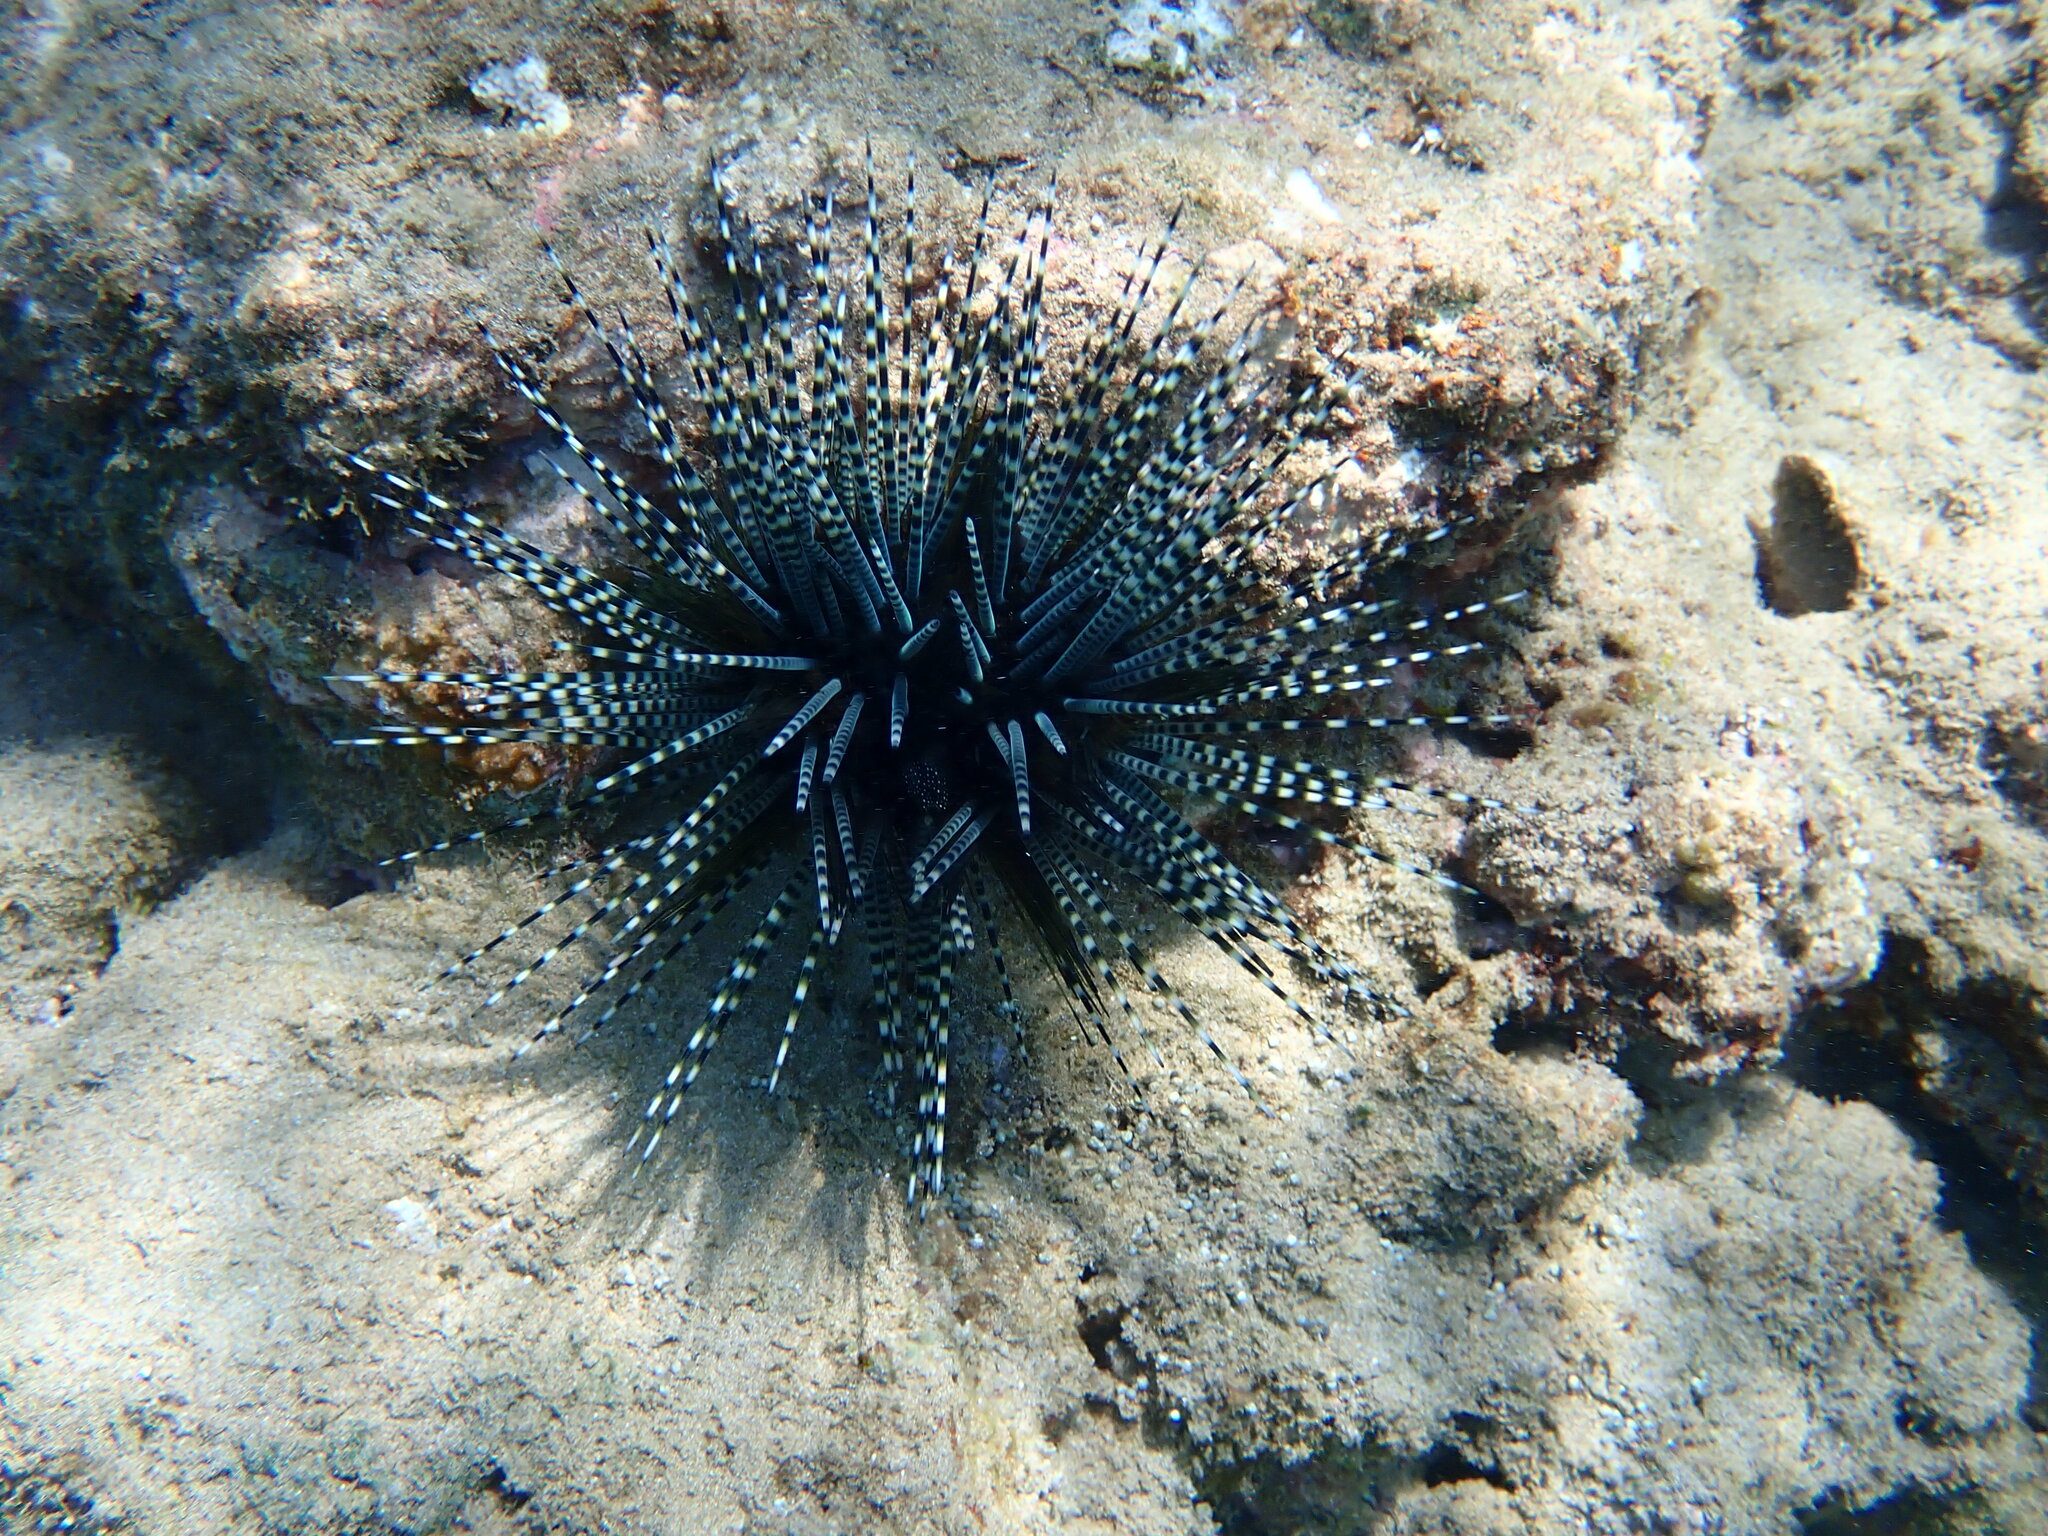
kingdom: Animalia
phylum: Echinodermata
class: Echinoidea
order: Diadematoida
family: Diadematidae
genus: Echinothrix
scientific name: Echinothrix calamaris
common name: Banded sea urchin
